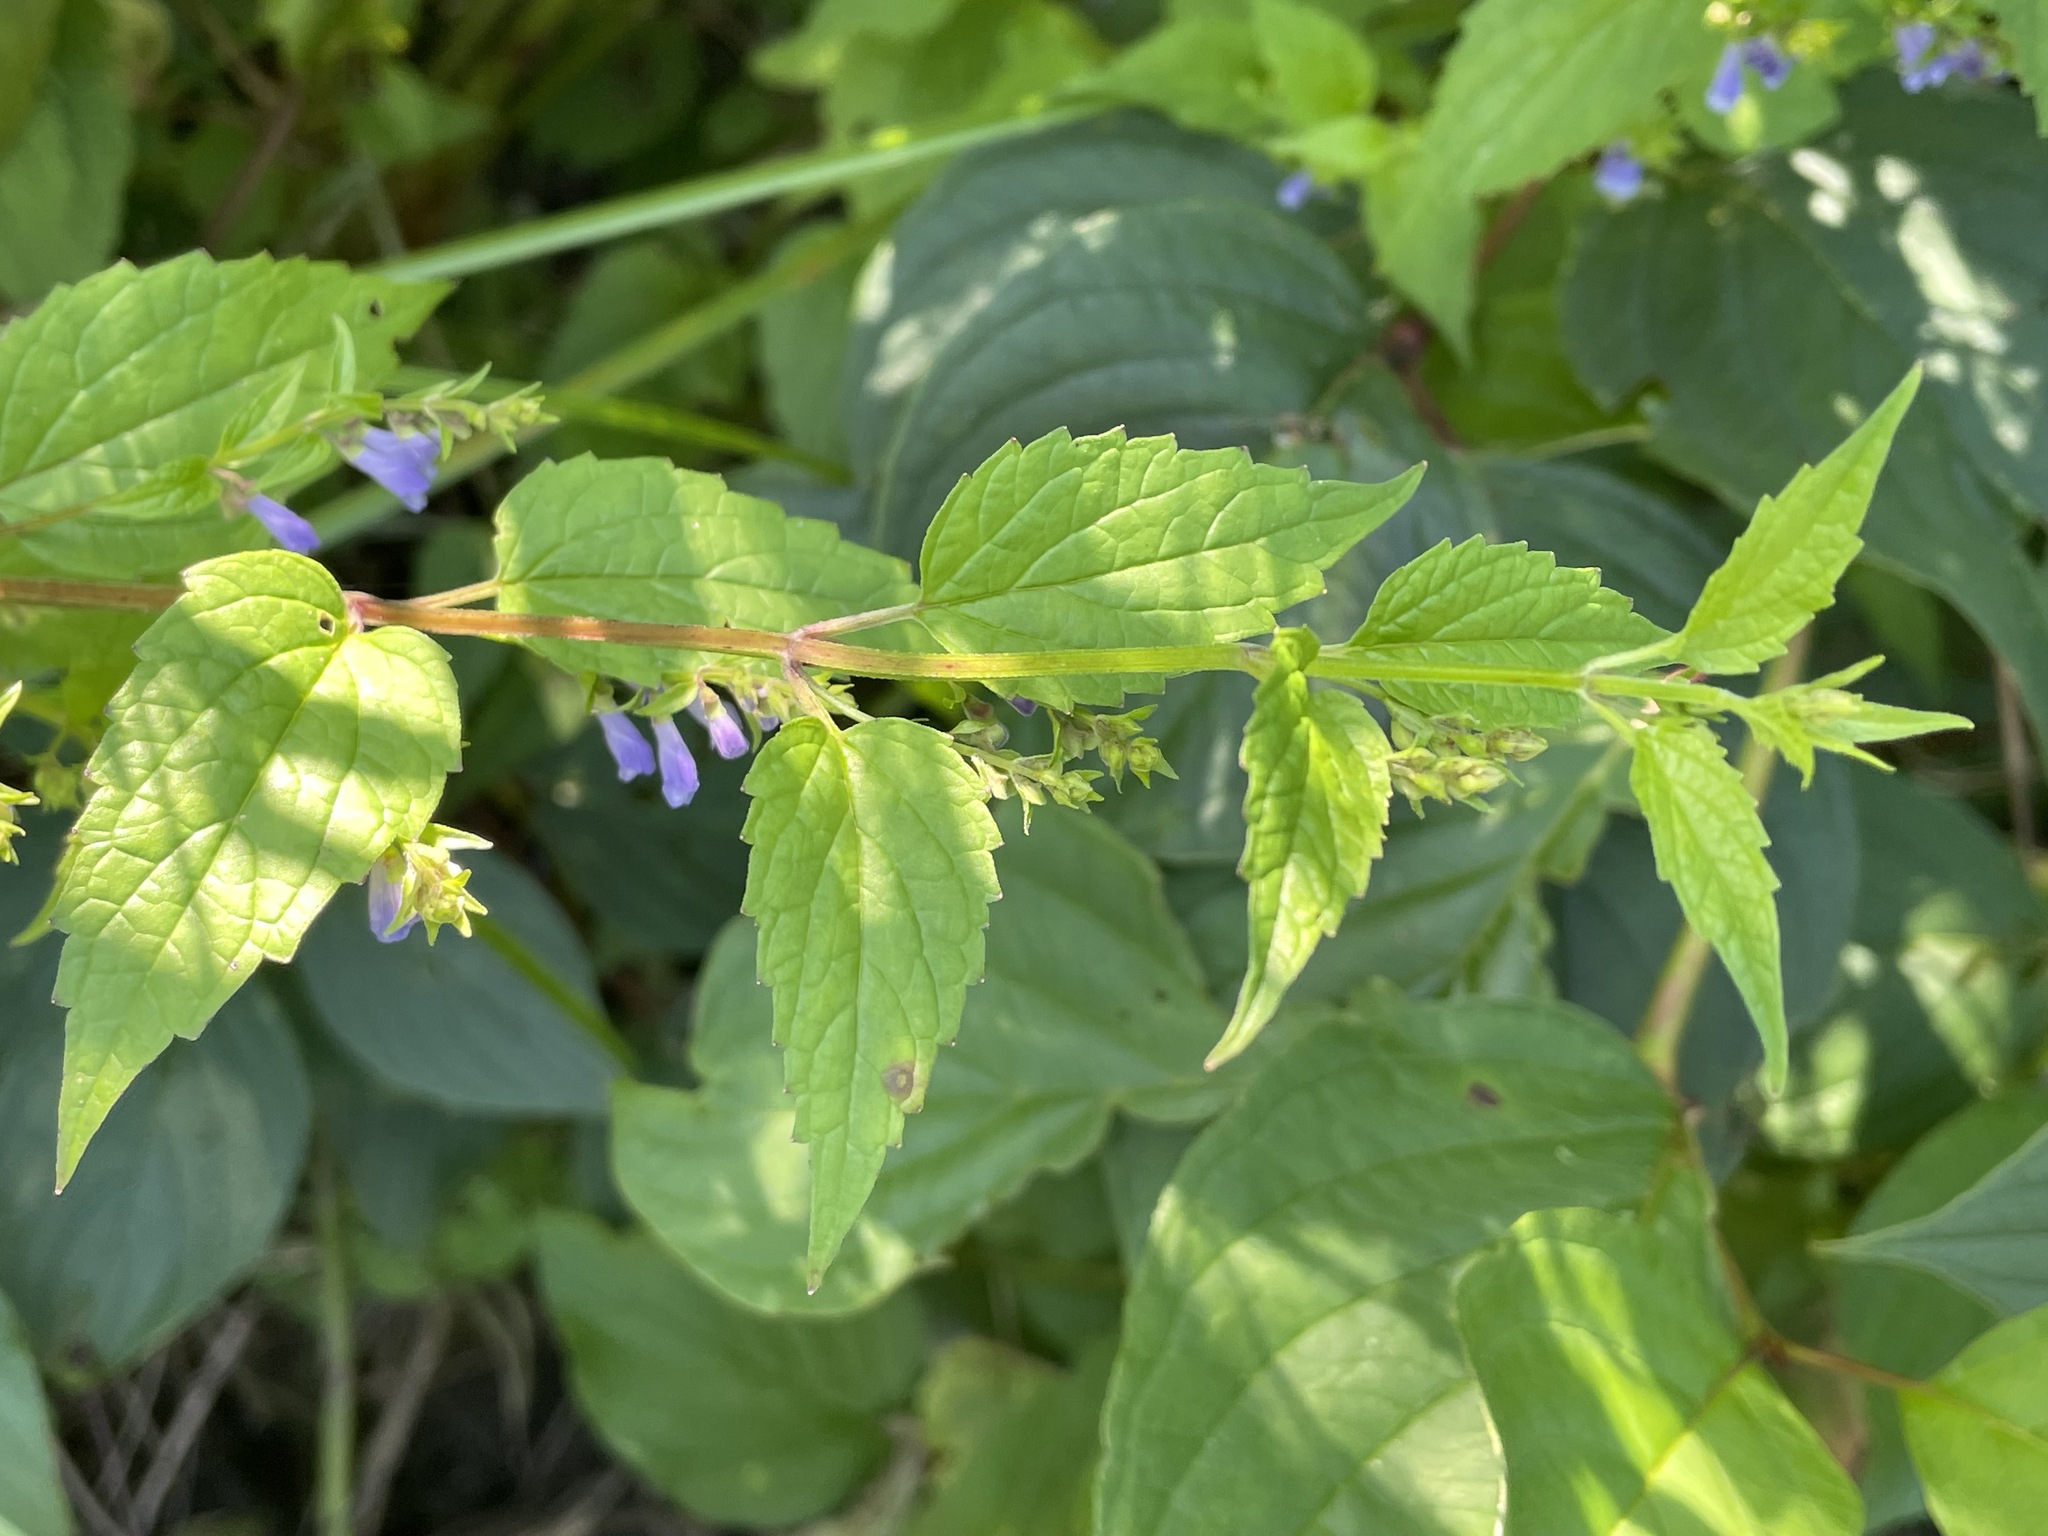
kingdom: Plantae
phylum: Tracheophyta
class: Magnoliopsida
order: Lamiales
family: Lamiaceae
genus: Scutellaria
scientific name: Scutellaria lateriflora
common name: Blue skullcap
